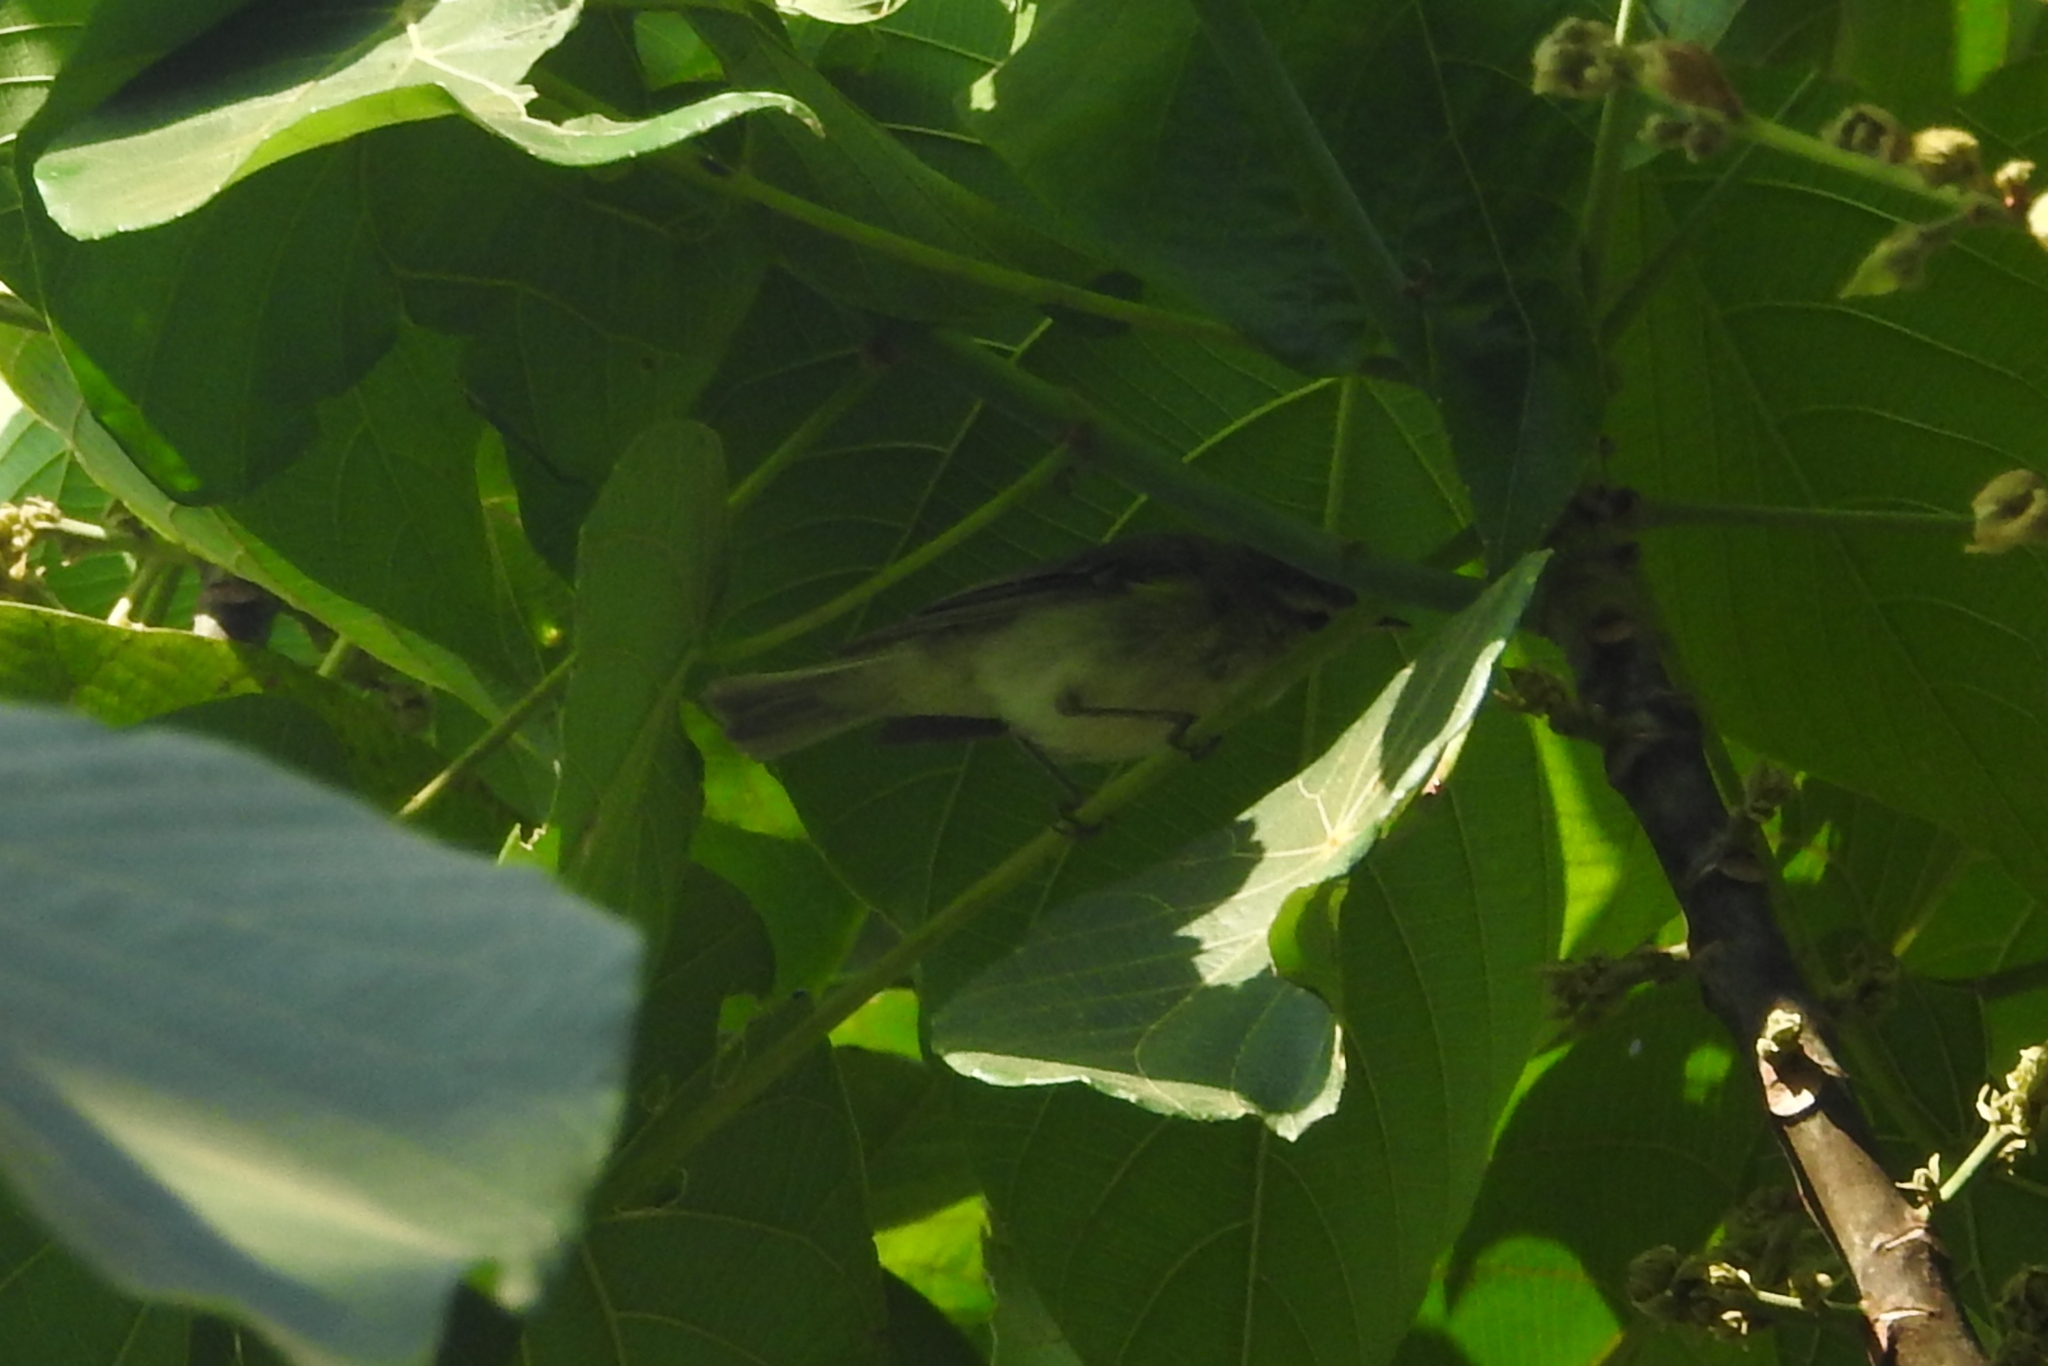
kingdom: Animalia
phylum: Chordata
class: Aves
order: Passeriformes
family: Phylloscopidae
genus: Phylloscopus
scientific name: Phylloscopus nitidus
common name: Green warbler
